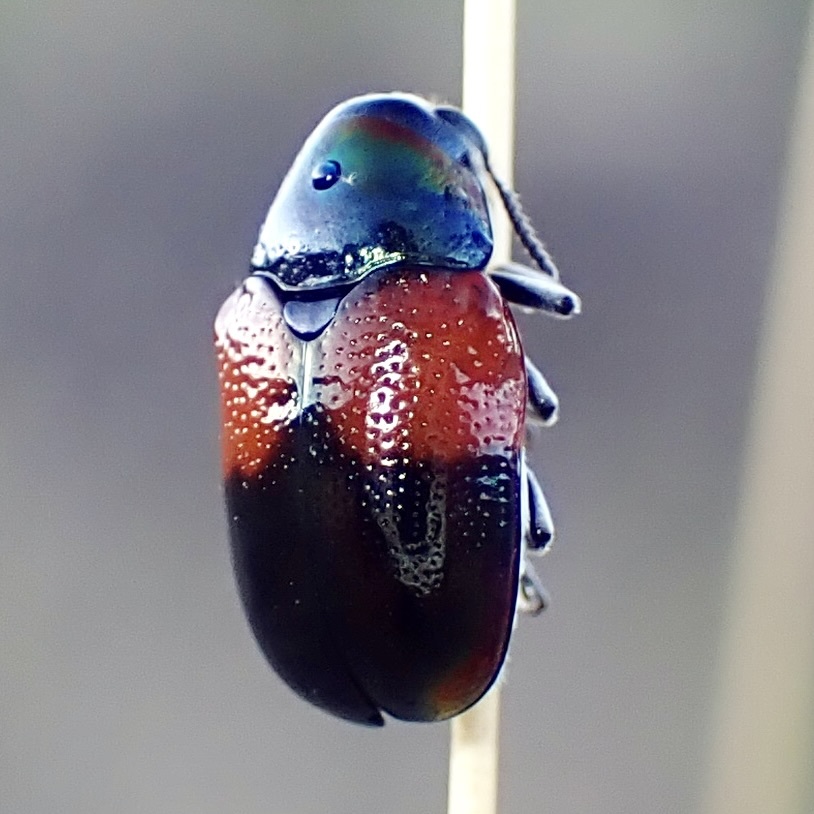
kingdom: Animalia
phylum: Arthropoda
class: Insecta
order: Coleoptera
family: Chrysomelidae
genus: Megalostomis
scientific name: Megalostomis pyropyga
